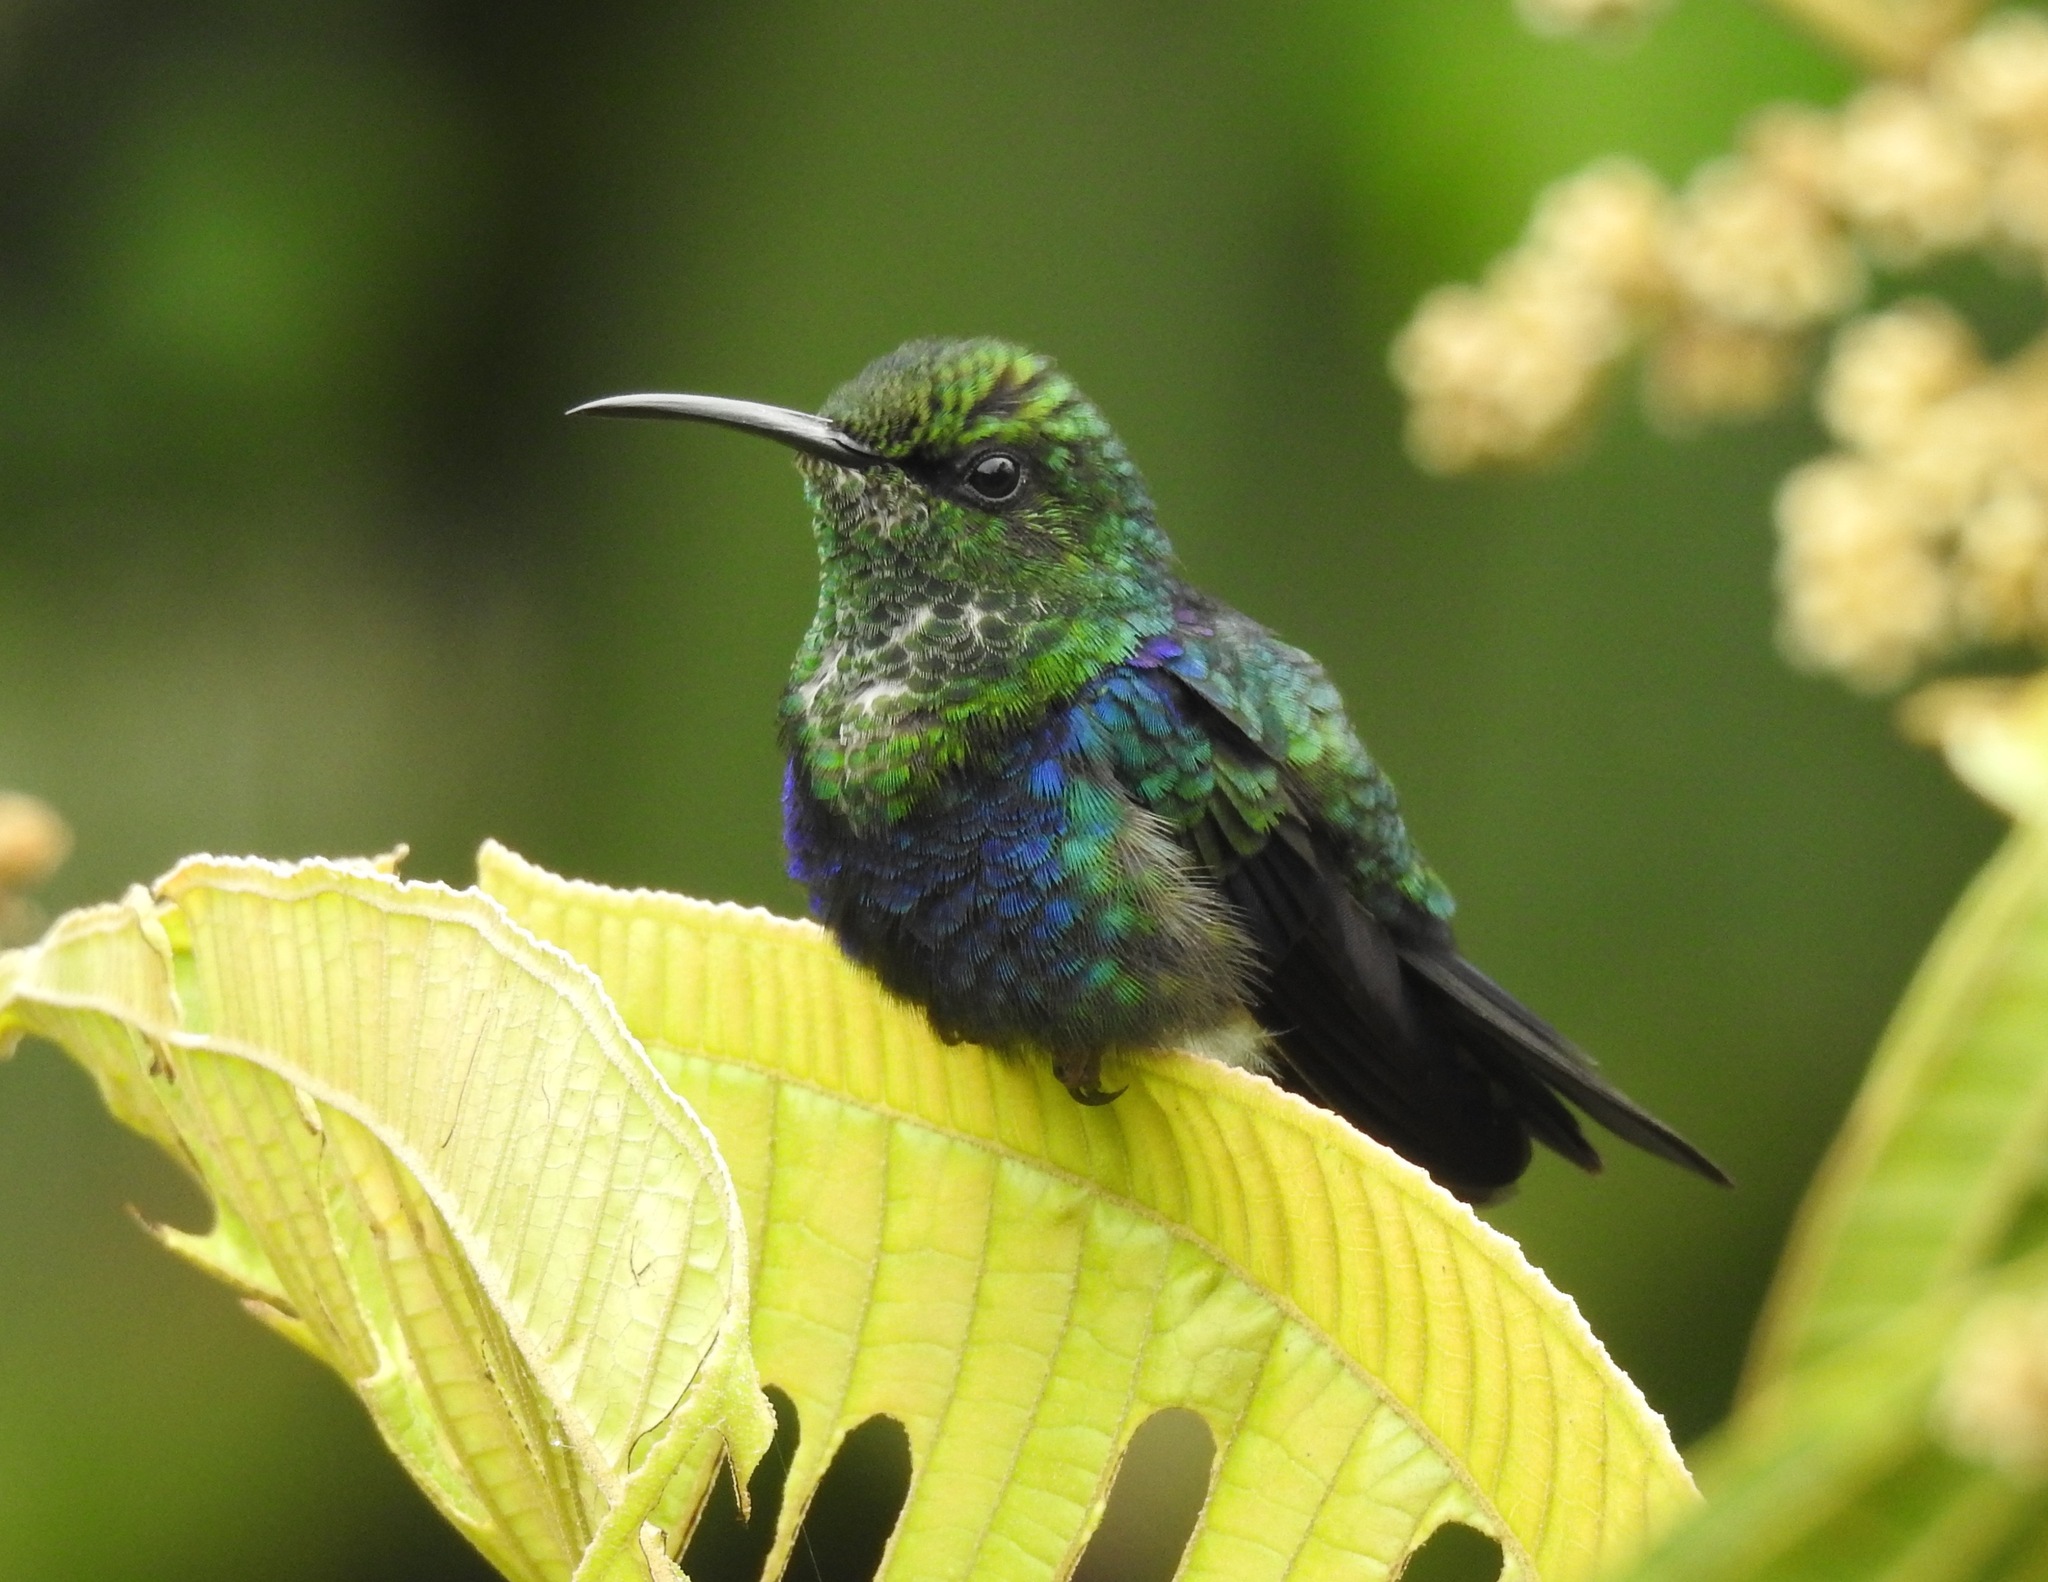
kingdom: Animalia
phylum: Chordata
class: Aves
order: Apodiformes
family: Trochilidae
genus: Thalurania
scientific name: Thalurania furcata
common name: Fork-tailed woodnymph
